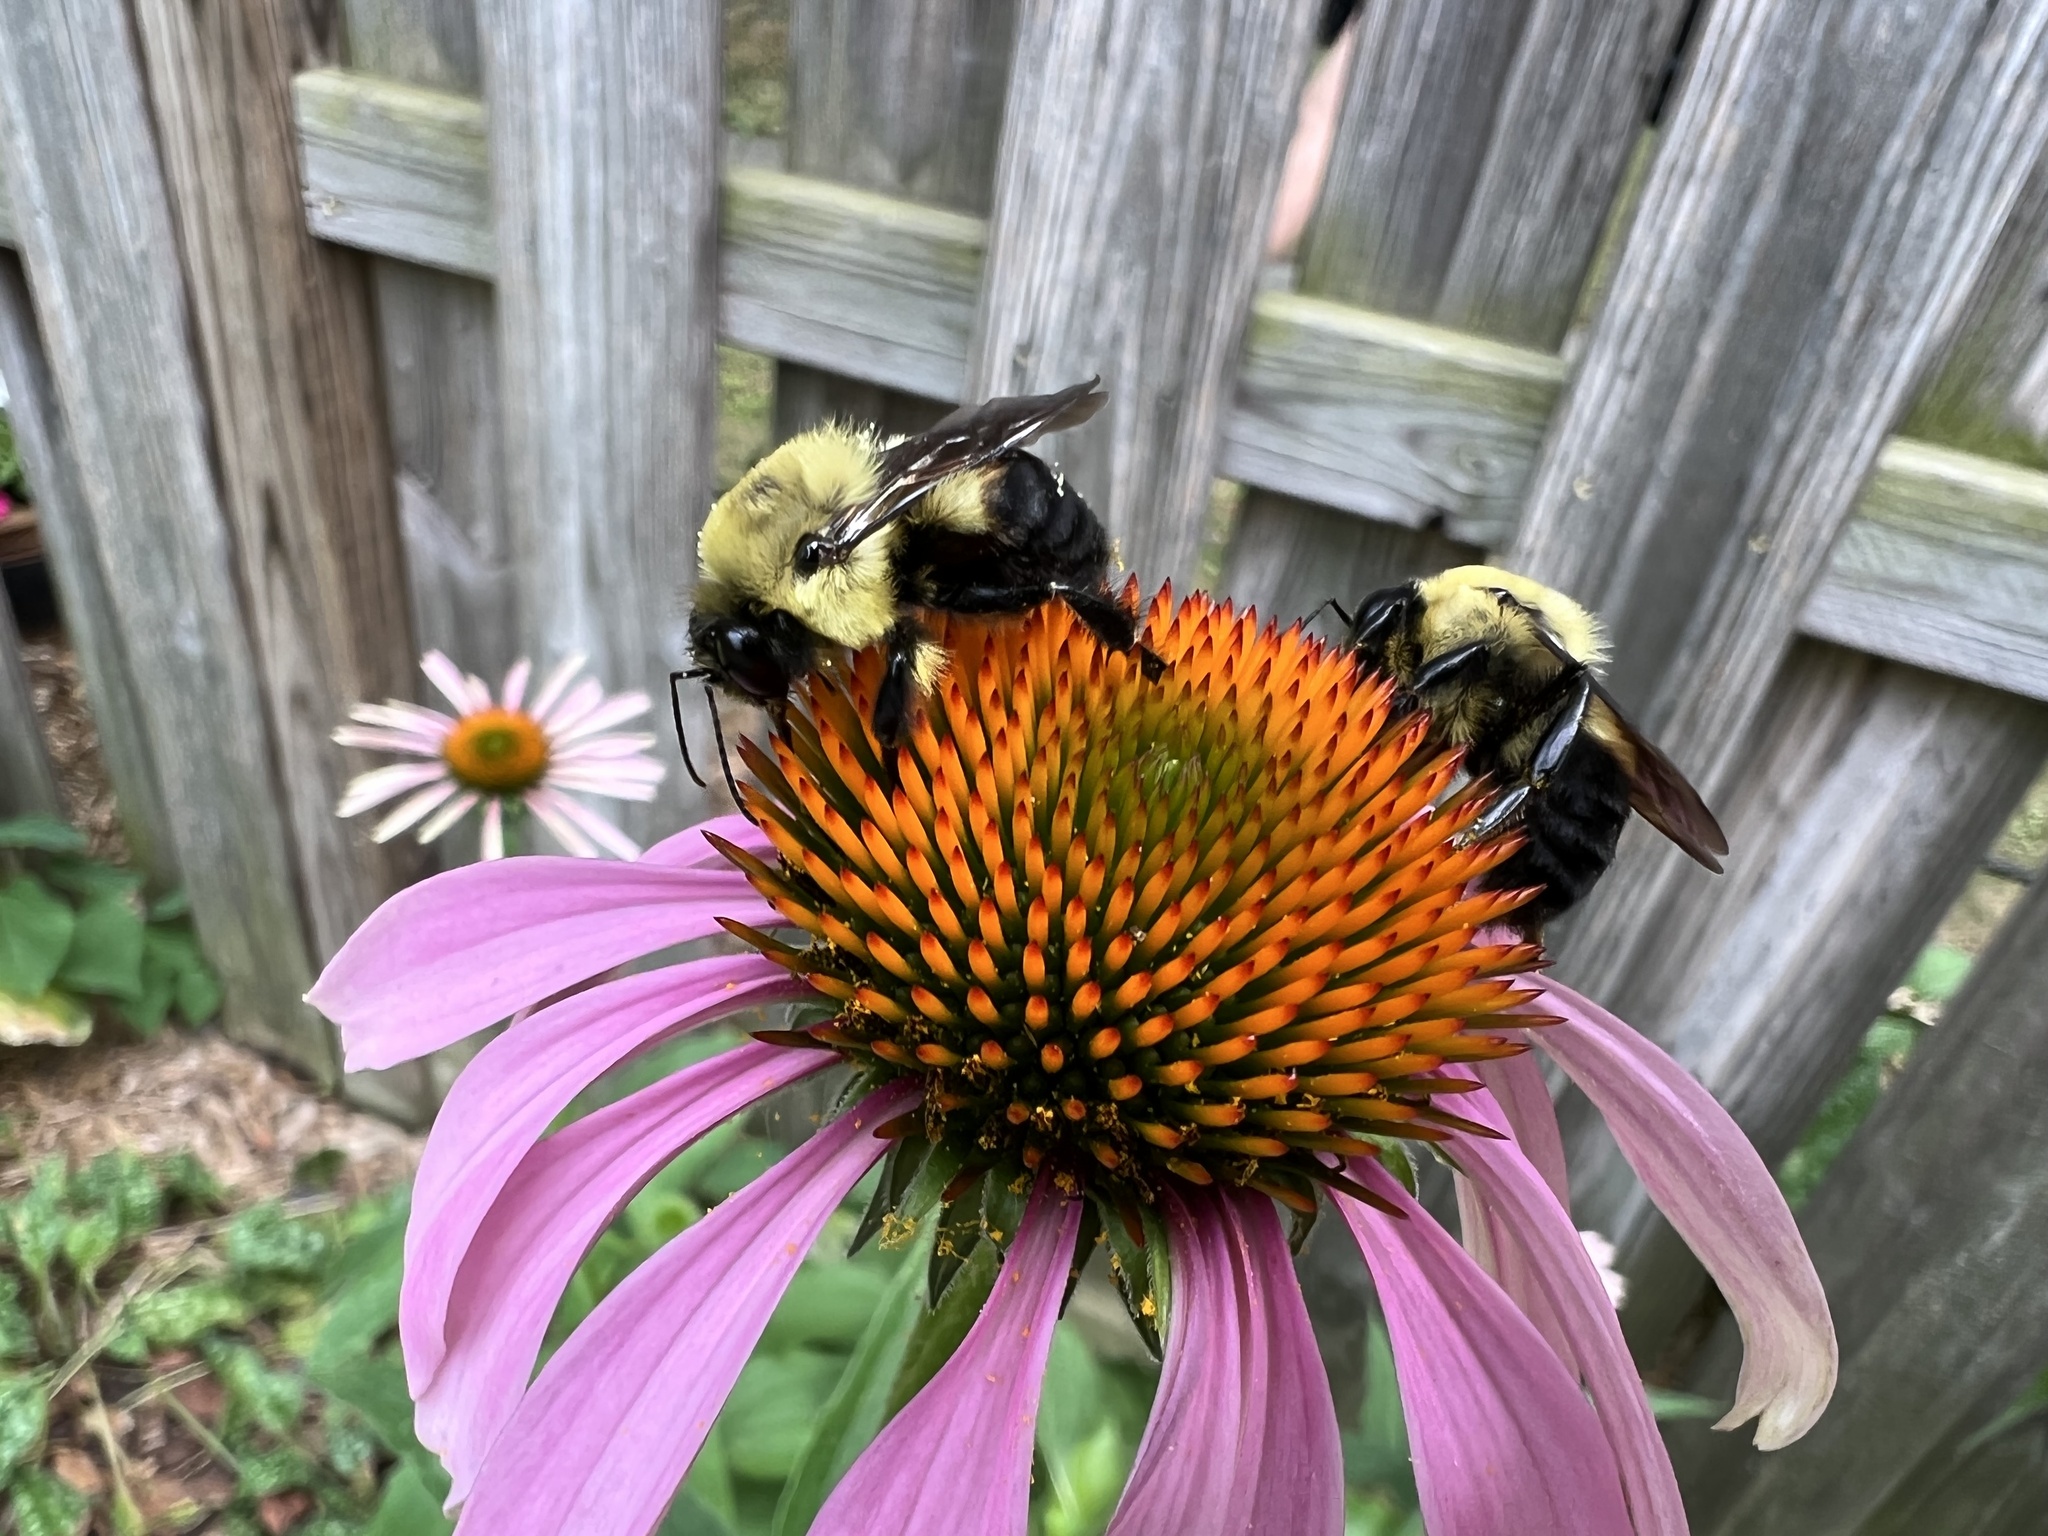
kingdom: Animalia
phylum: Arthropoda
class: Insecta
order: Hymenoptera
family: Apidae
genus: Bombus
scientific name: Bombus griseocollis
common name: Brown-belted bumble bee
